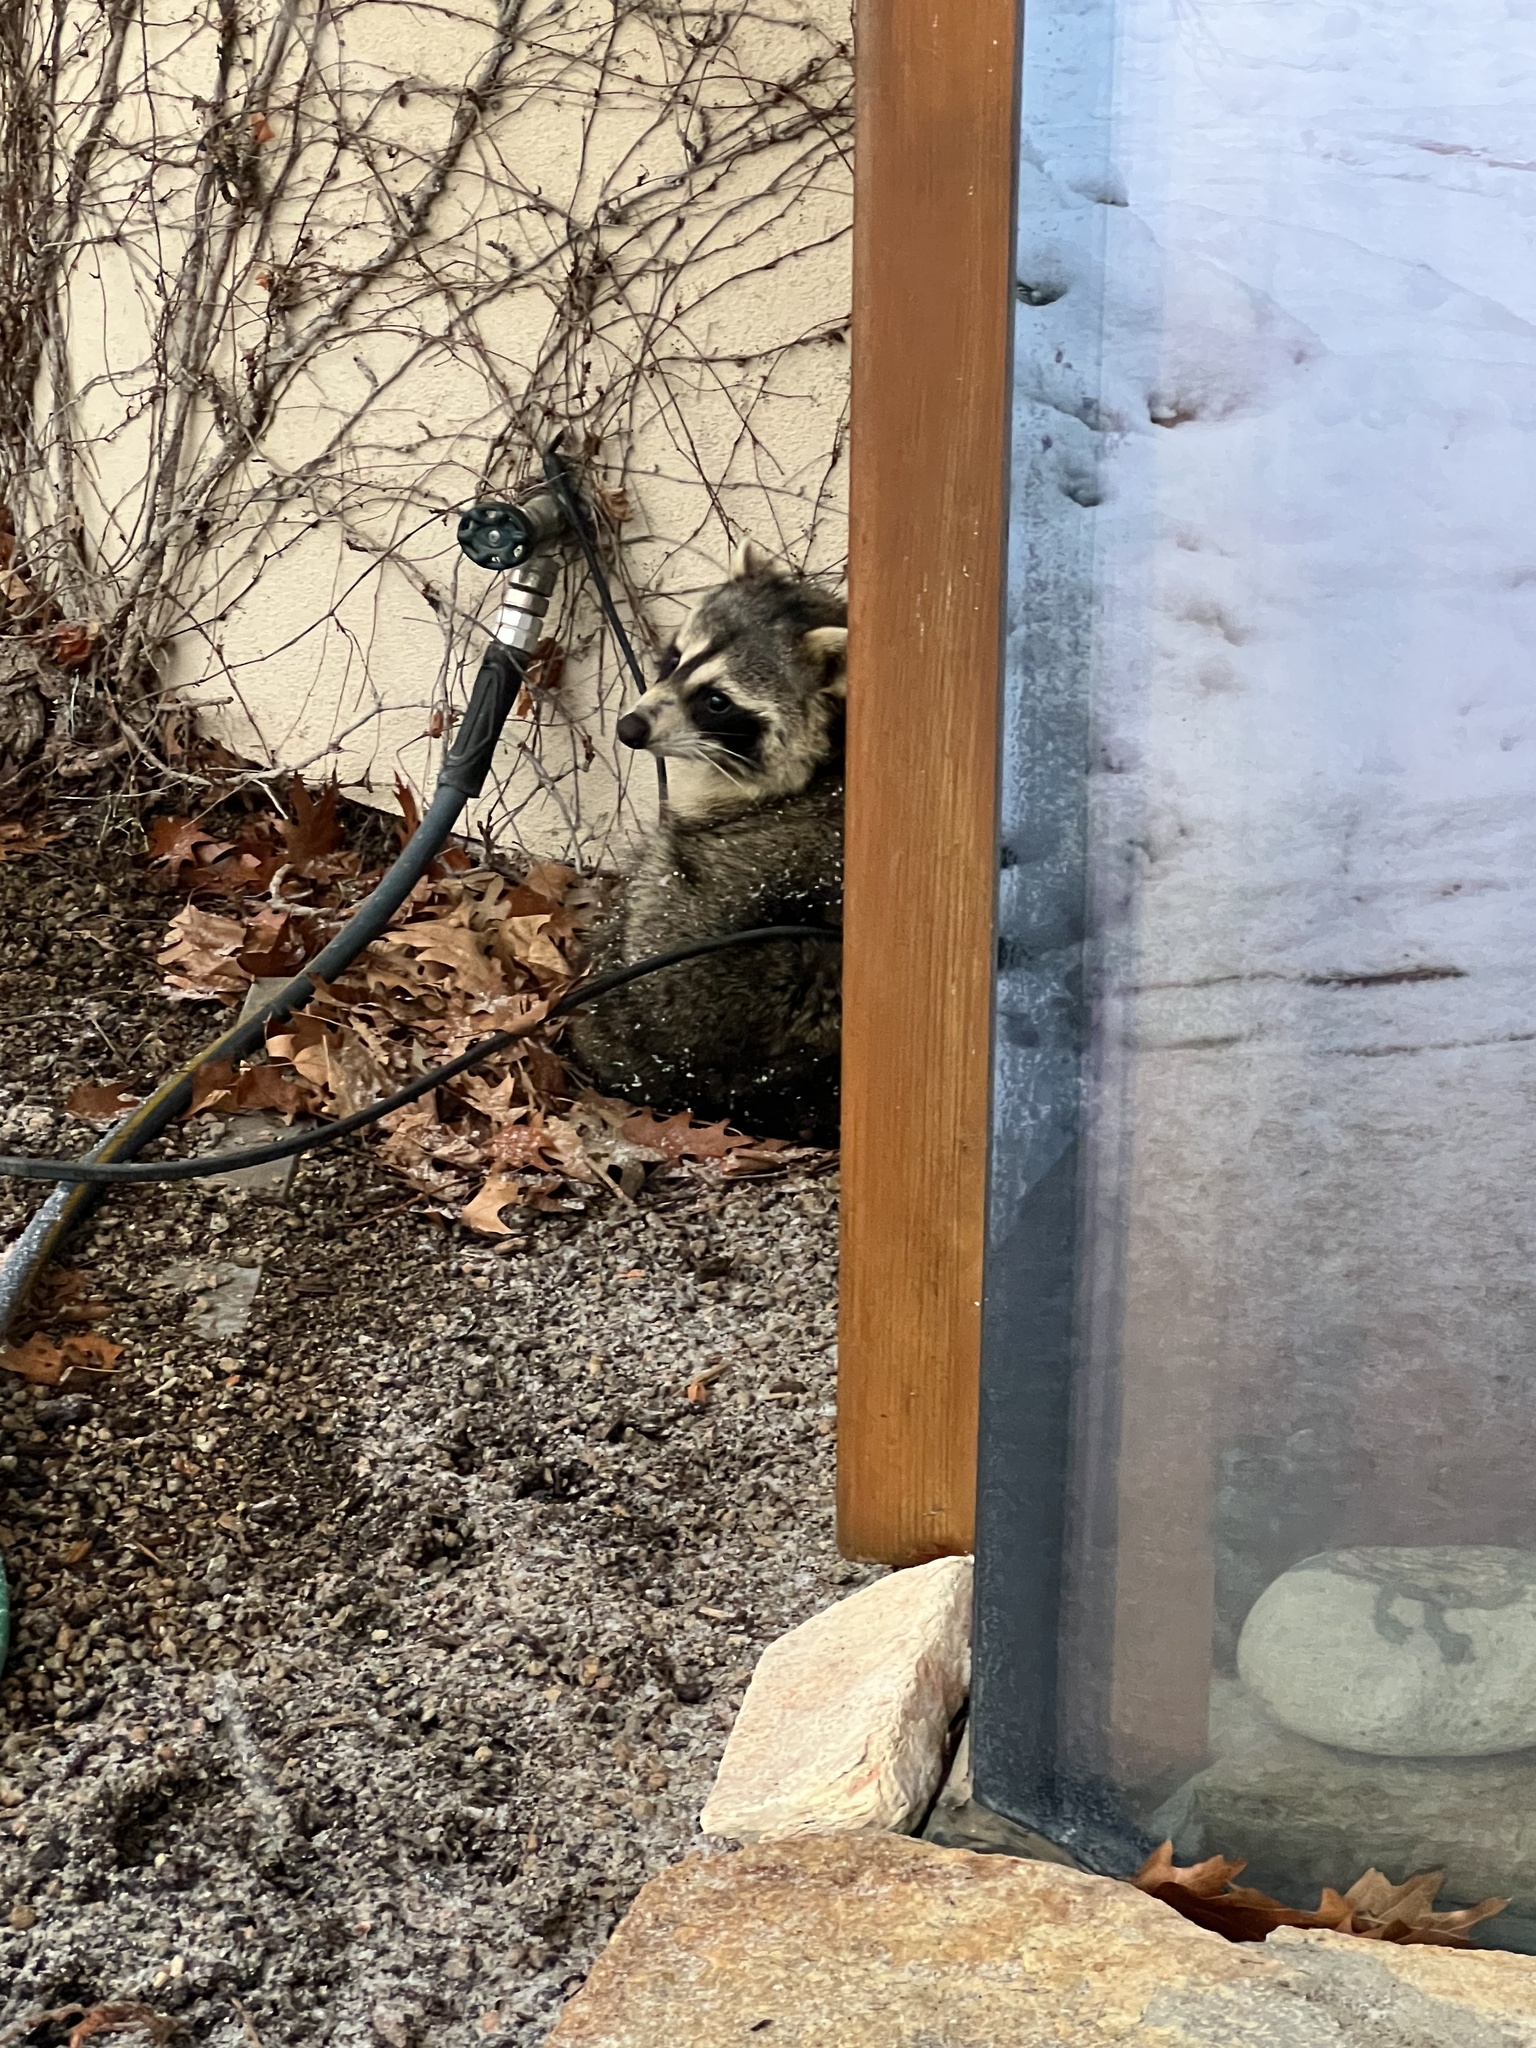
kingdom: Animalia
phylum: Chordata
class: Mammalia
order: Carnivora
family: Procyonidae
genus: Procyon
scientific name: Procyon lotor
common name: Raccoon
